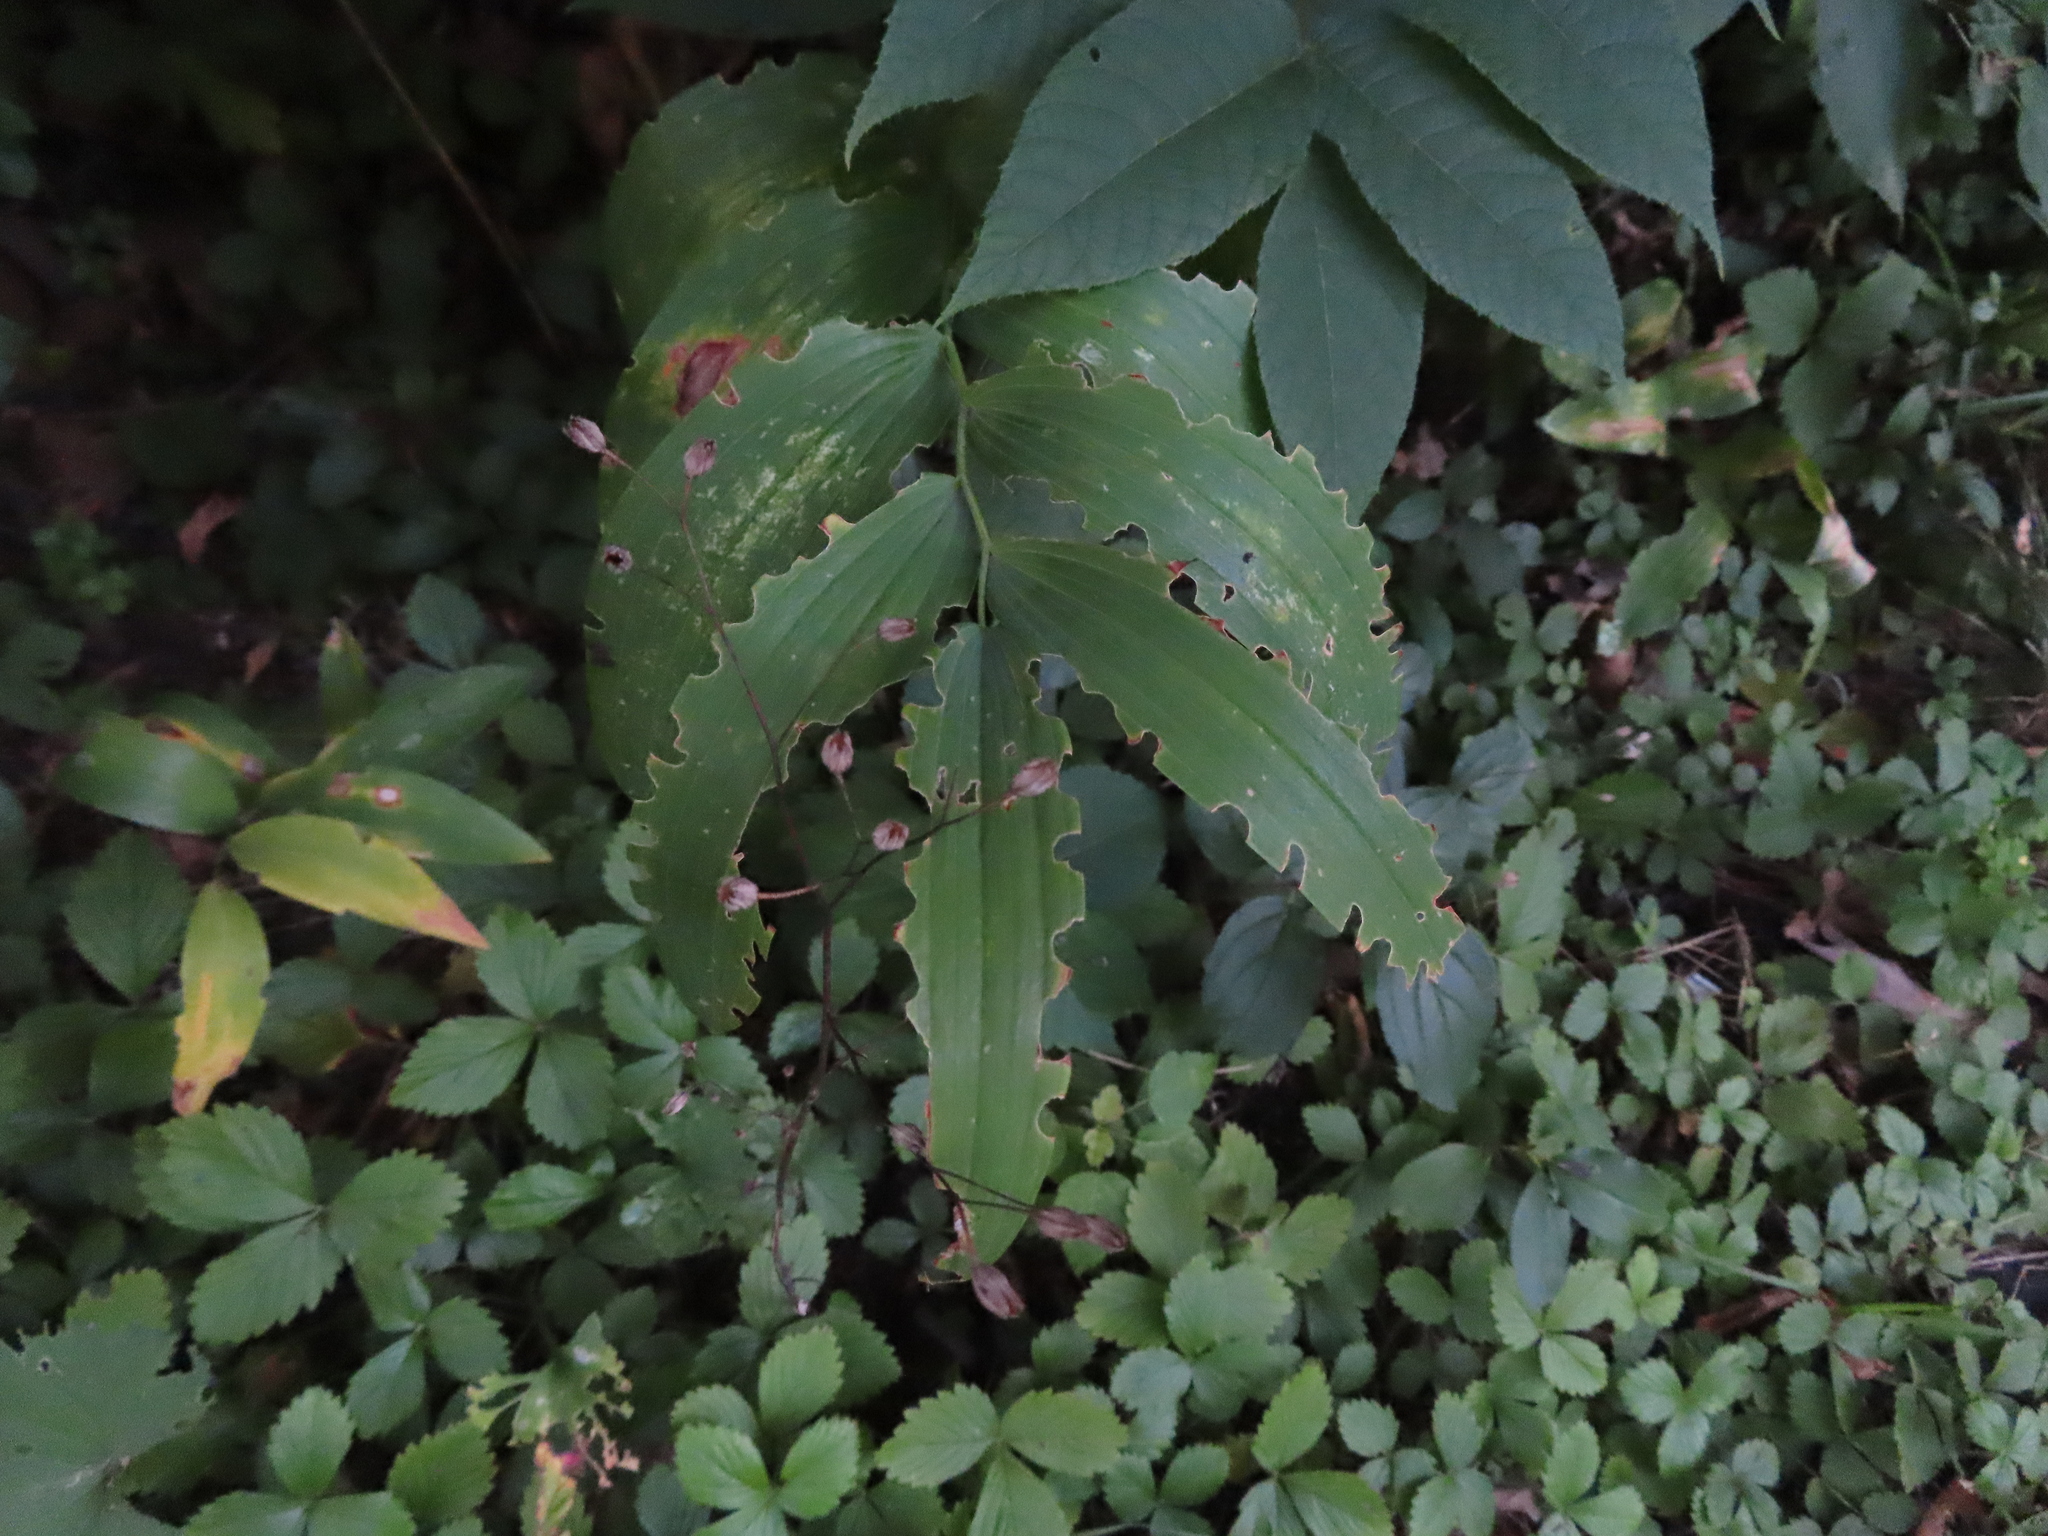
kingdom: Plantae
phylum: Tracheophyta
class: Liliopsida
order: Asparagales
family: Asparagaceae
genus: Polygonatum
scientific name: Polygonatum biflorum
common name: American solomon's-seal
